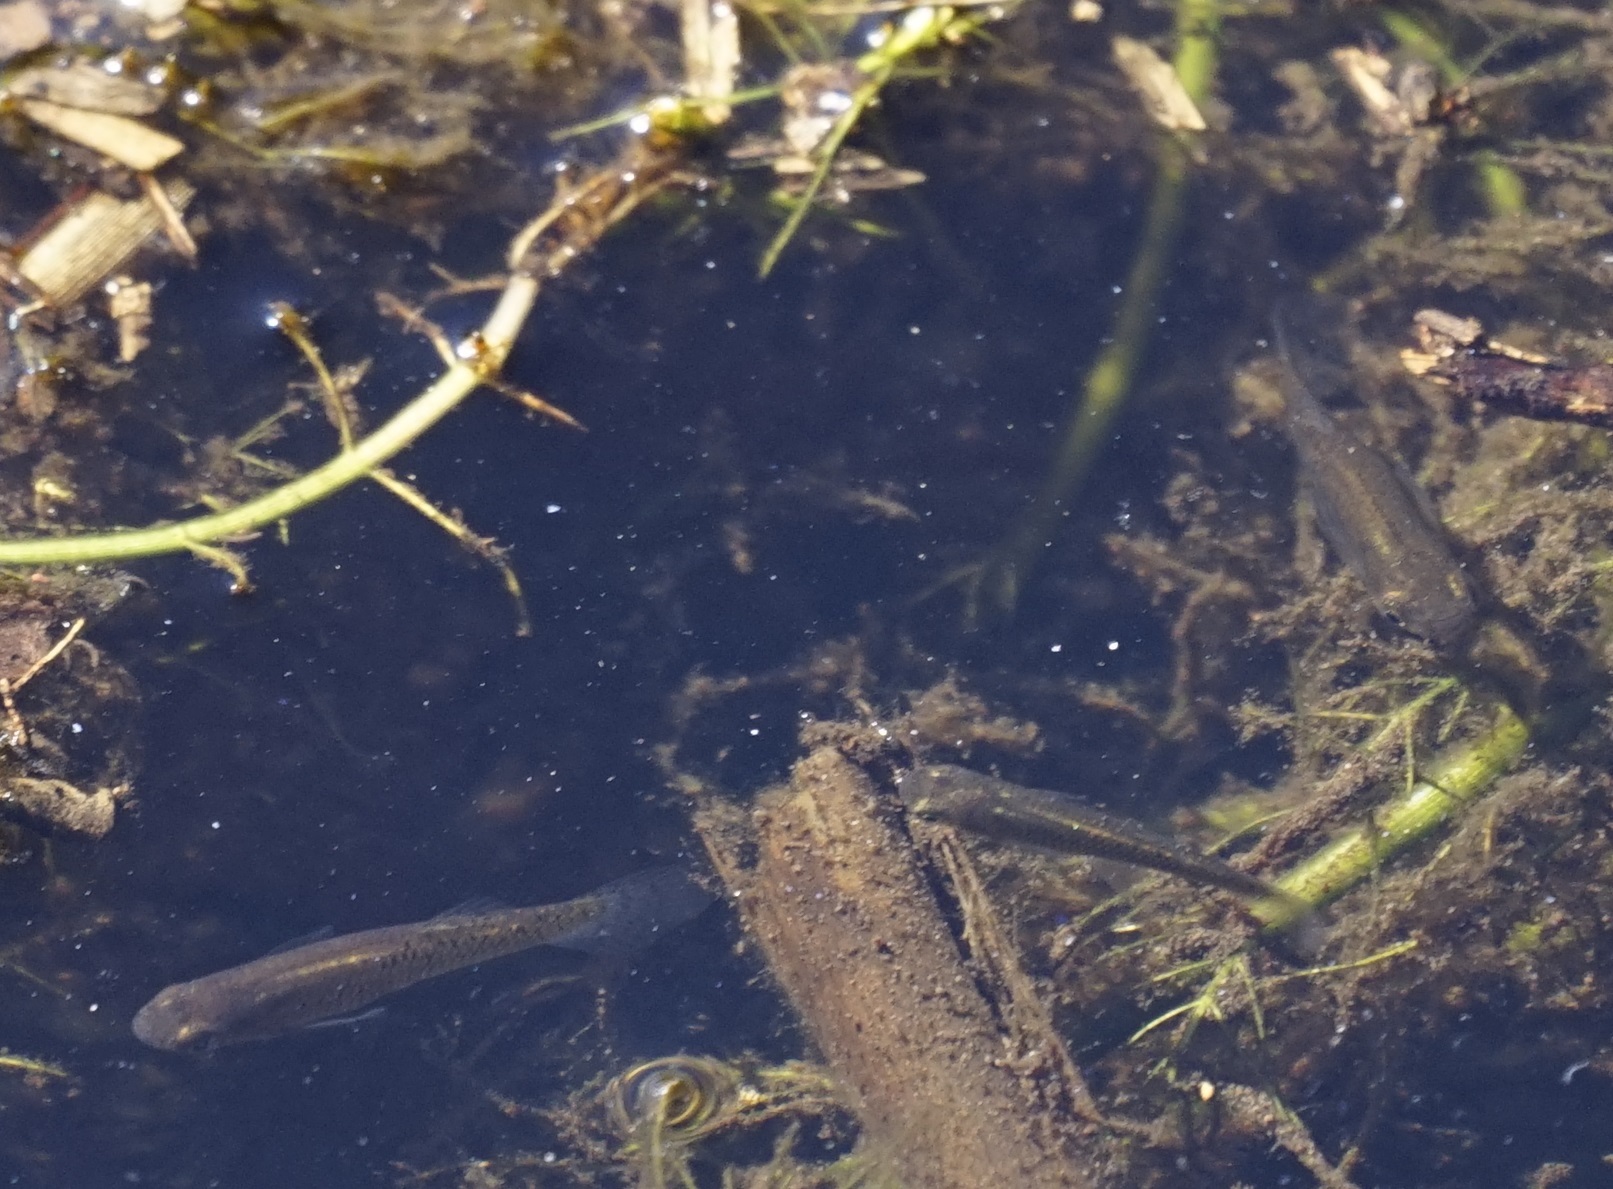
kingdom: Animalia
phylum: Chordata
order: Cyprinodontiformes
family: Poeciliidae
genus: Gambusia
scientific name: Gambusia holbrooki
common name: Eastern mosquitofish
